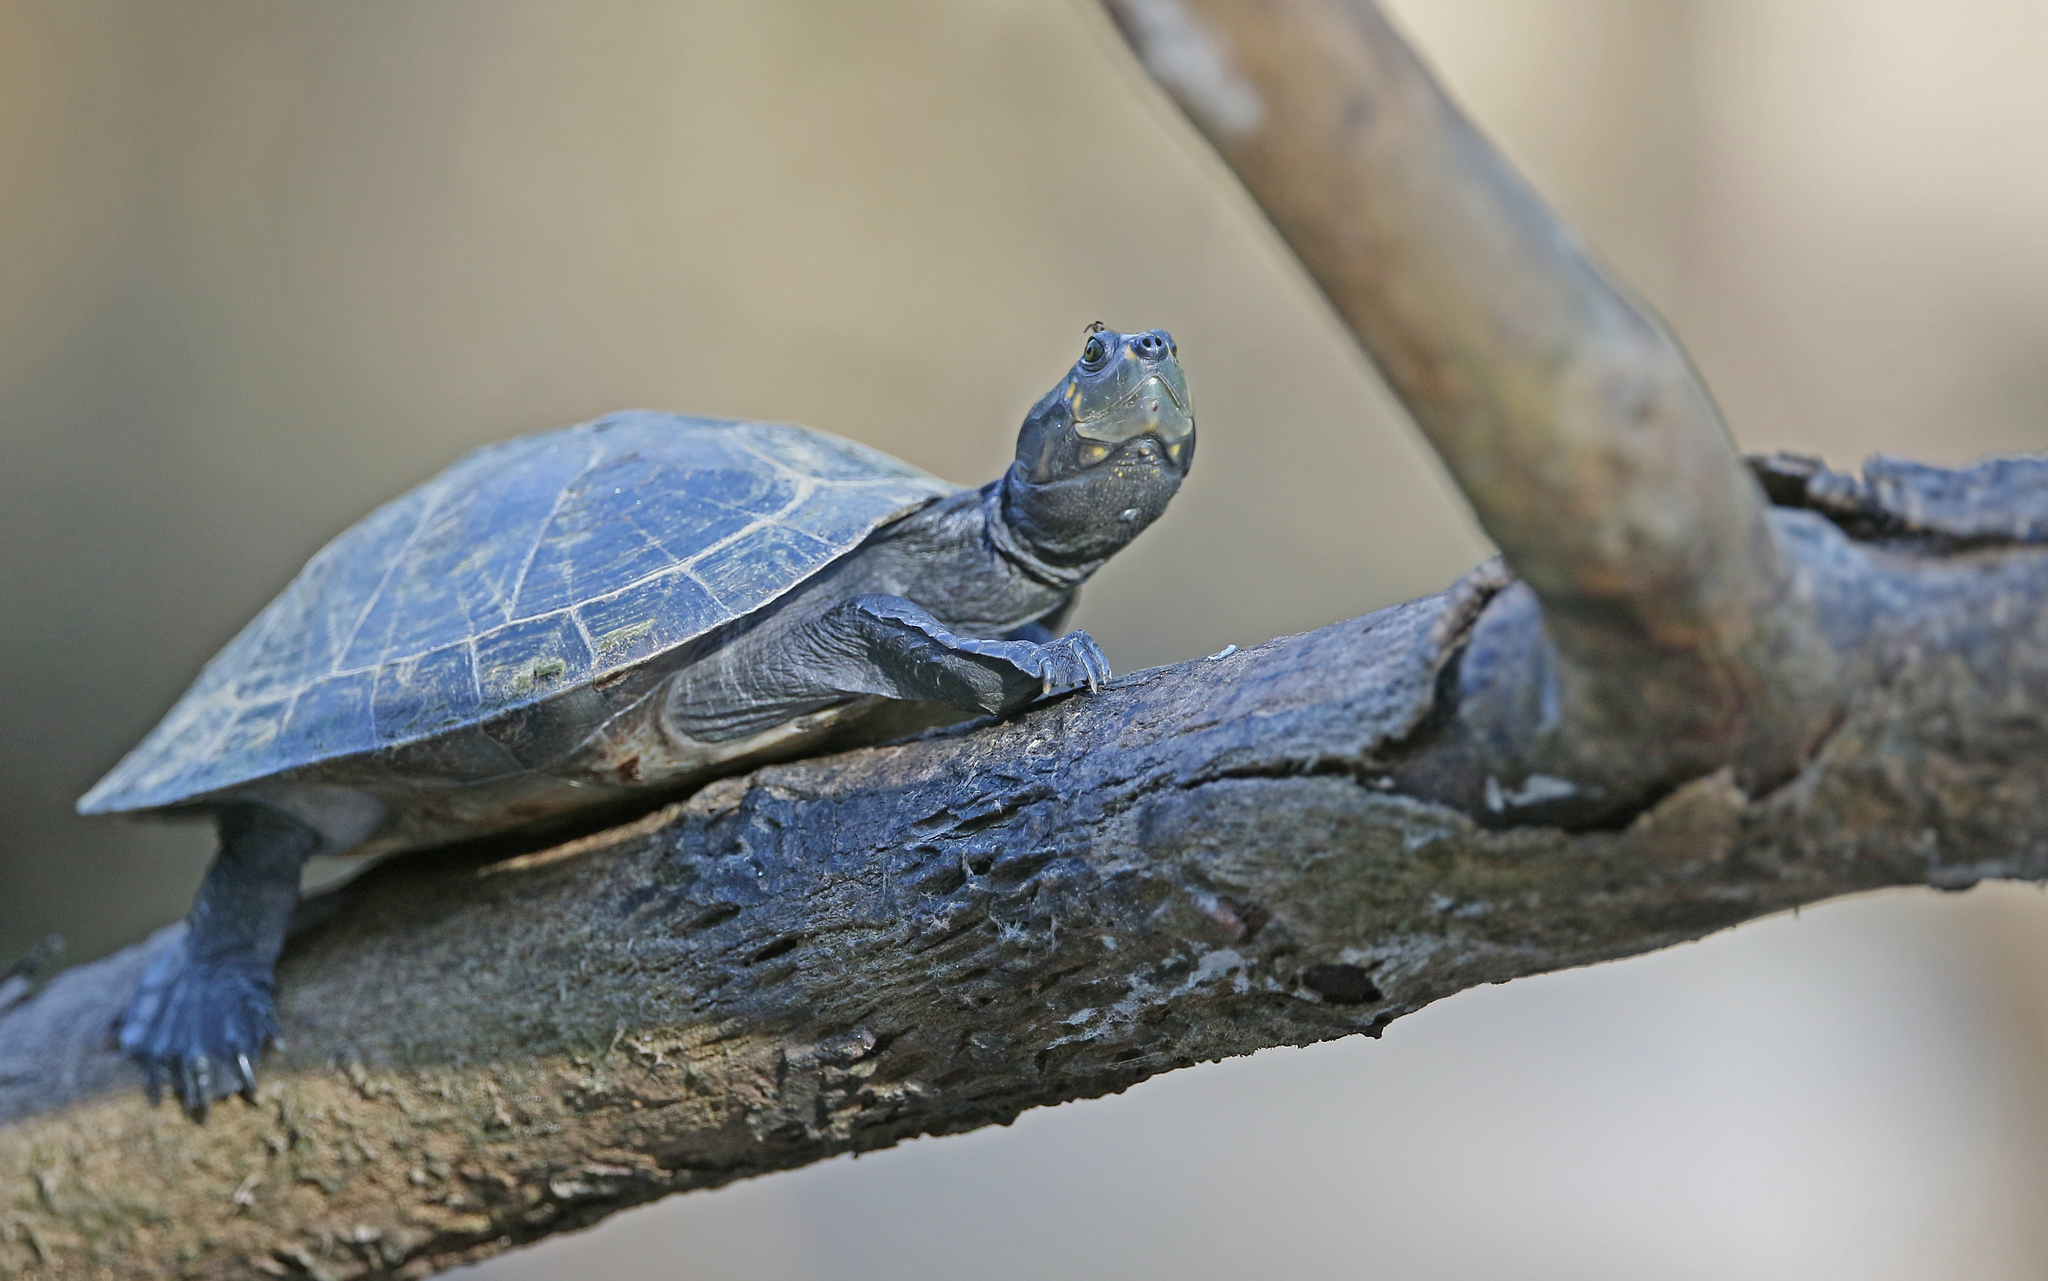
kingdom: Animalia
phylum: Chordata
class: Testudines
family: Podocnemididae
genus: Podocnemis
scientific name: Podocnemis unifilis
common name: Yellow-spotted amazon river turtle
